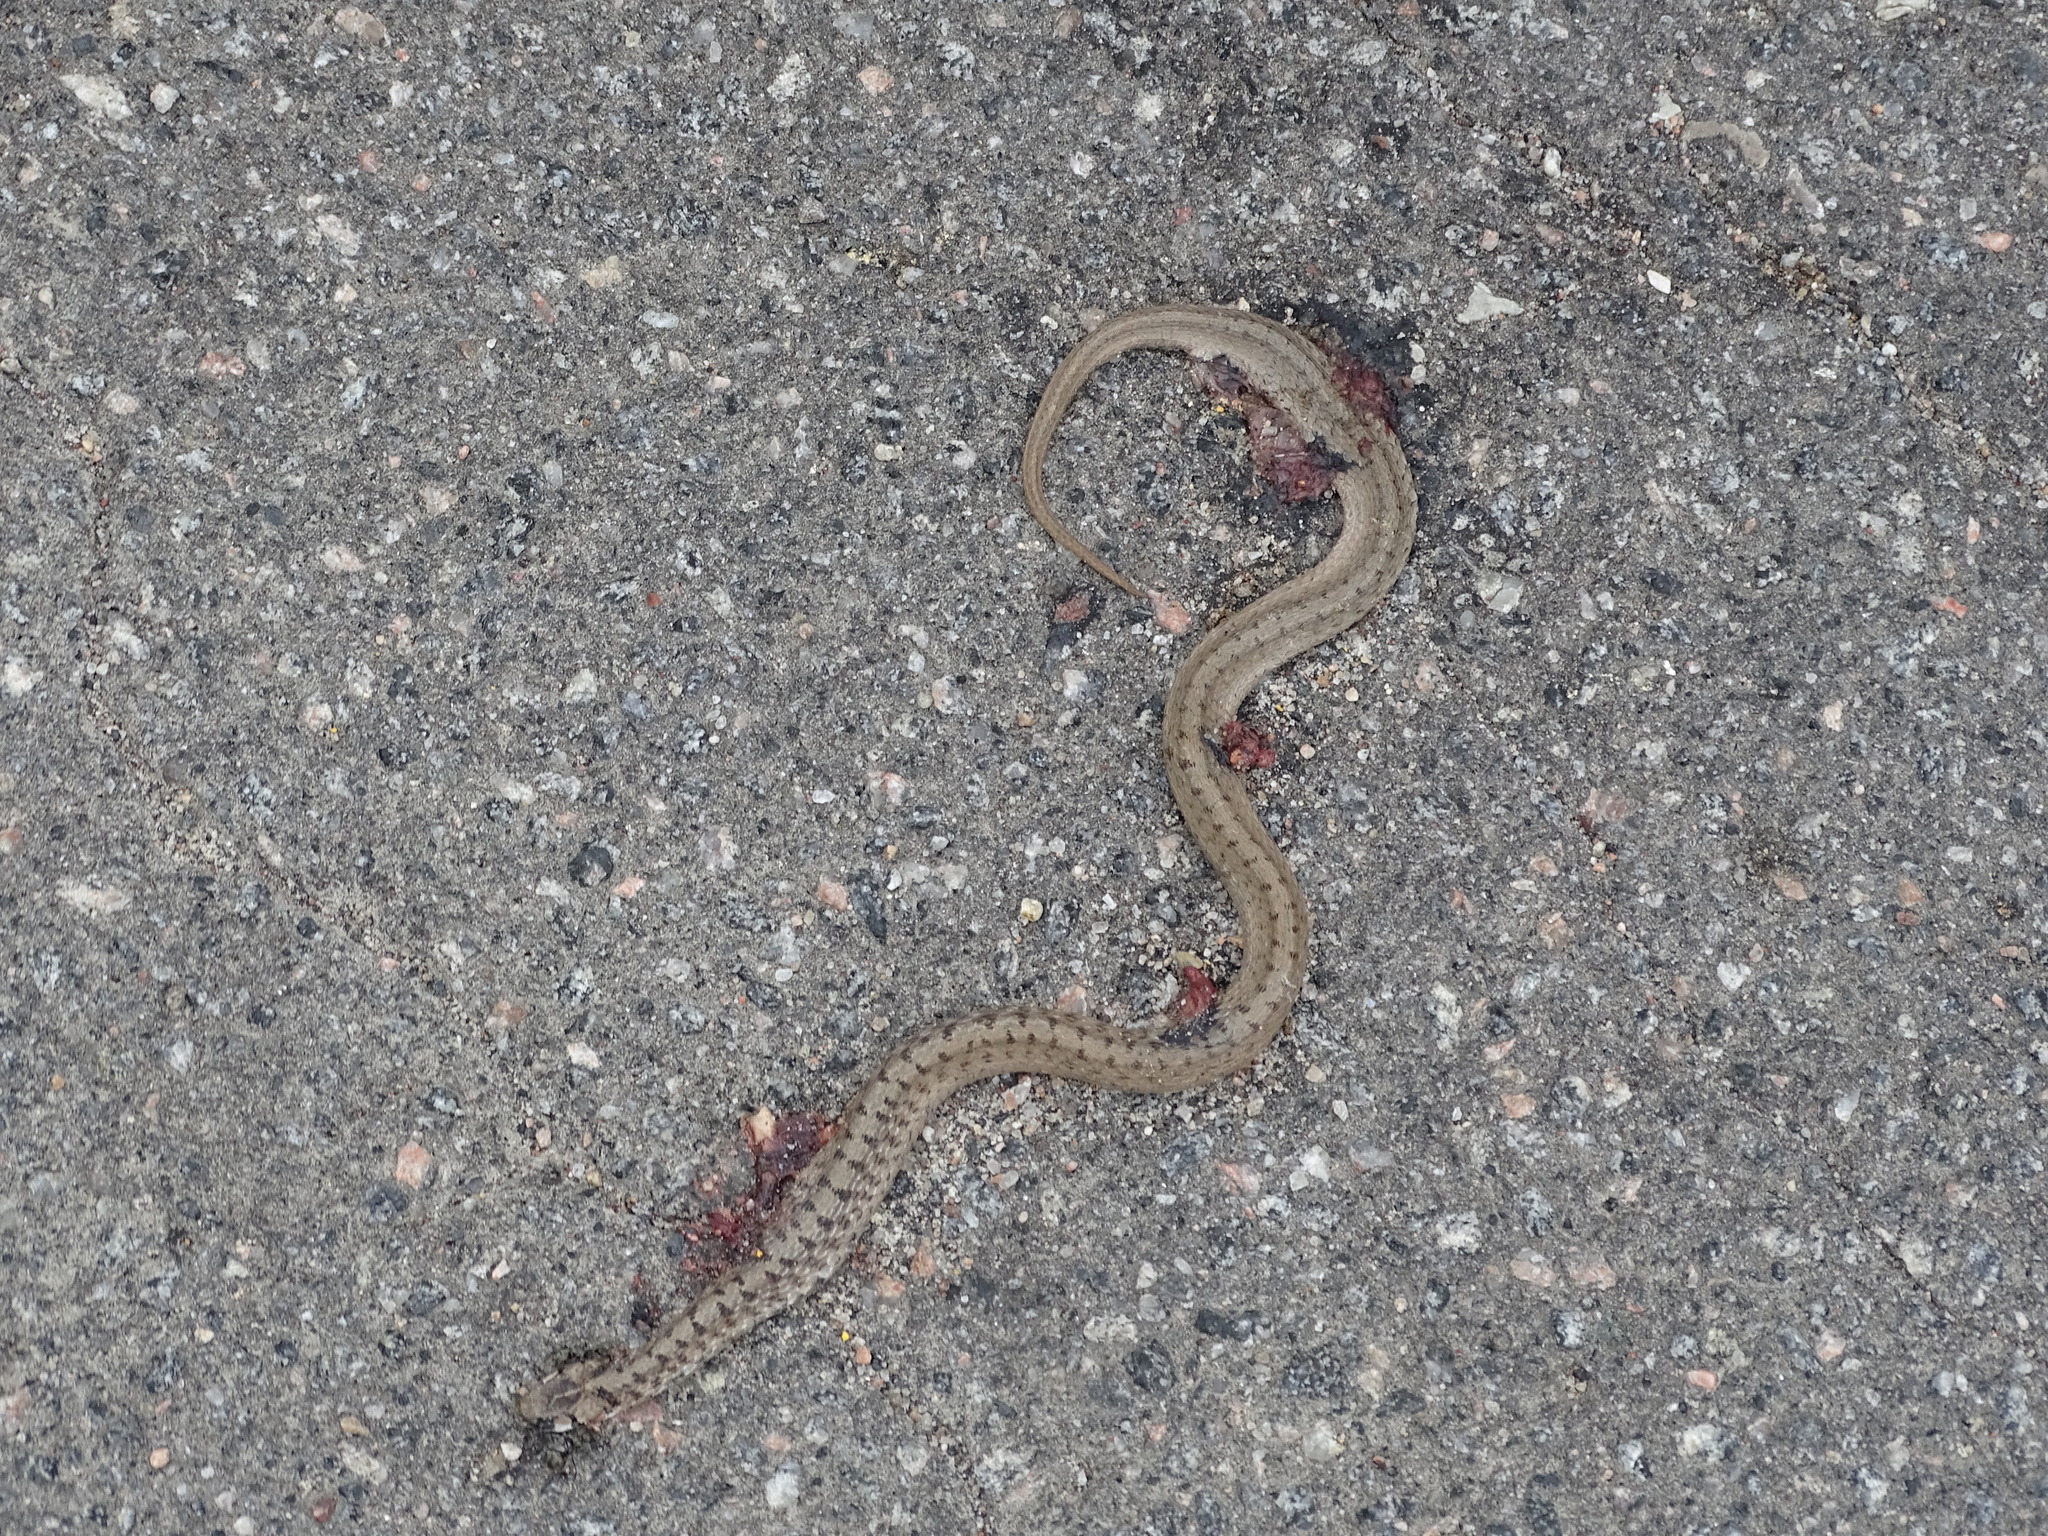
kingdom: Animalia
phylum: Chordata
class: Squamata
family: Colubridae
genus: Storeria
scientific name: Storeria dekayi
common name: (dekay’s) brown snake
